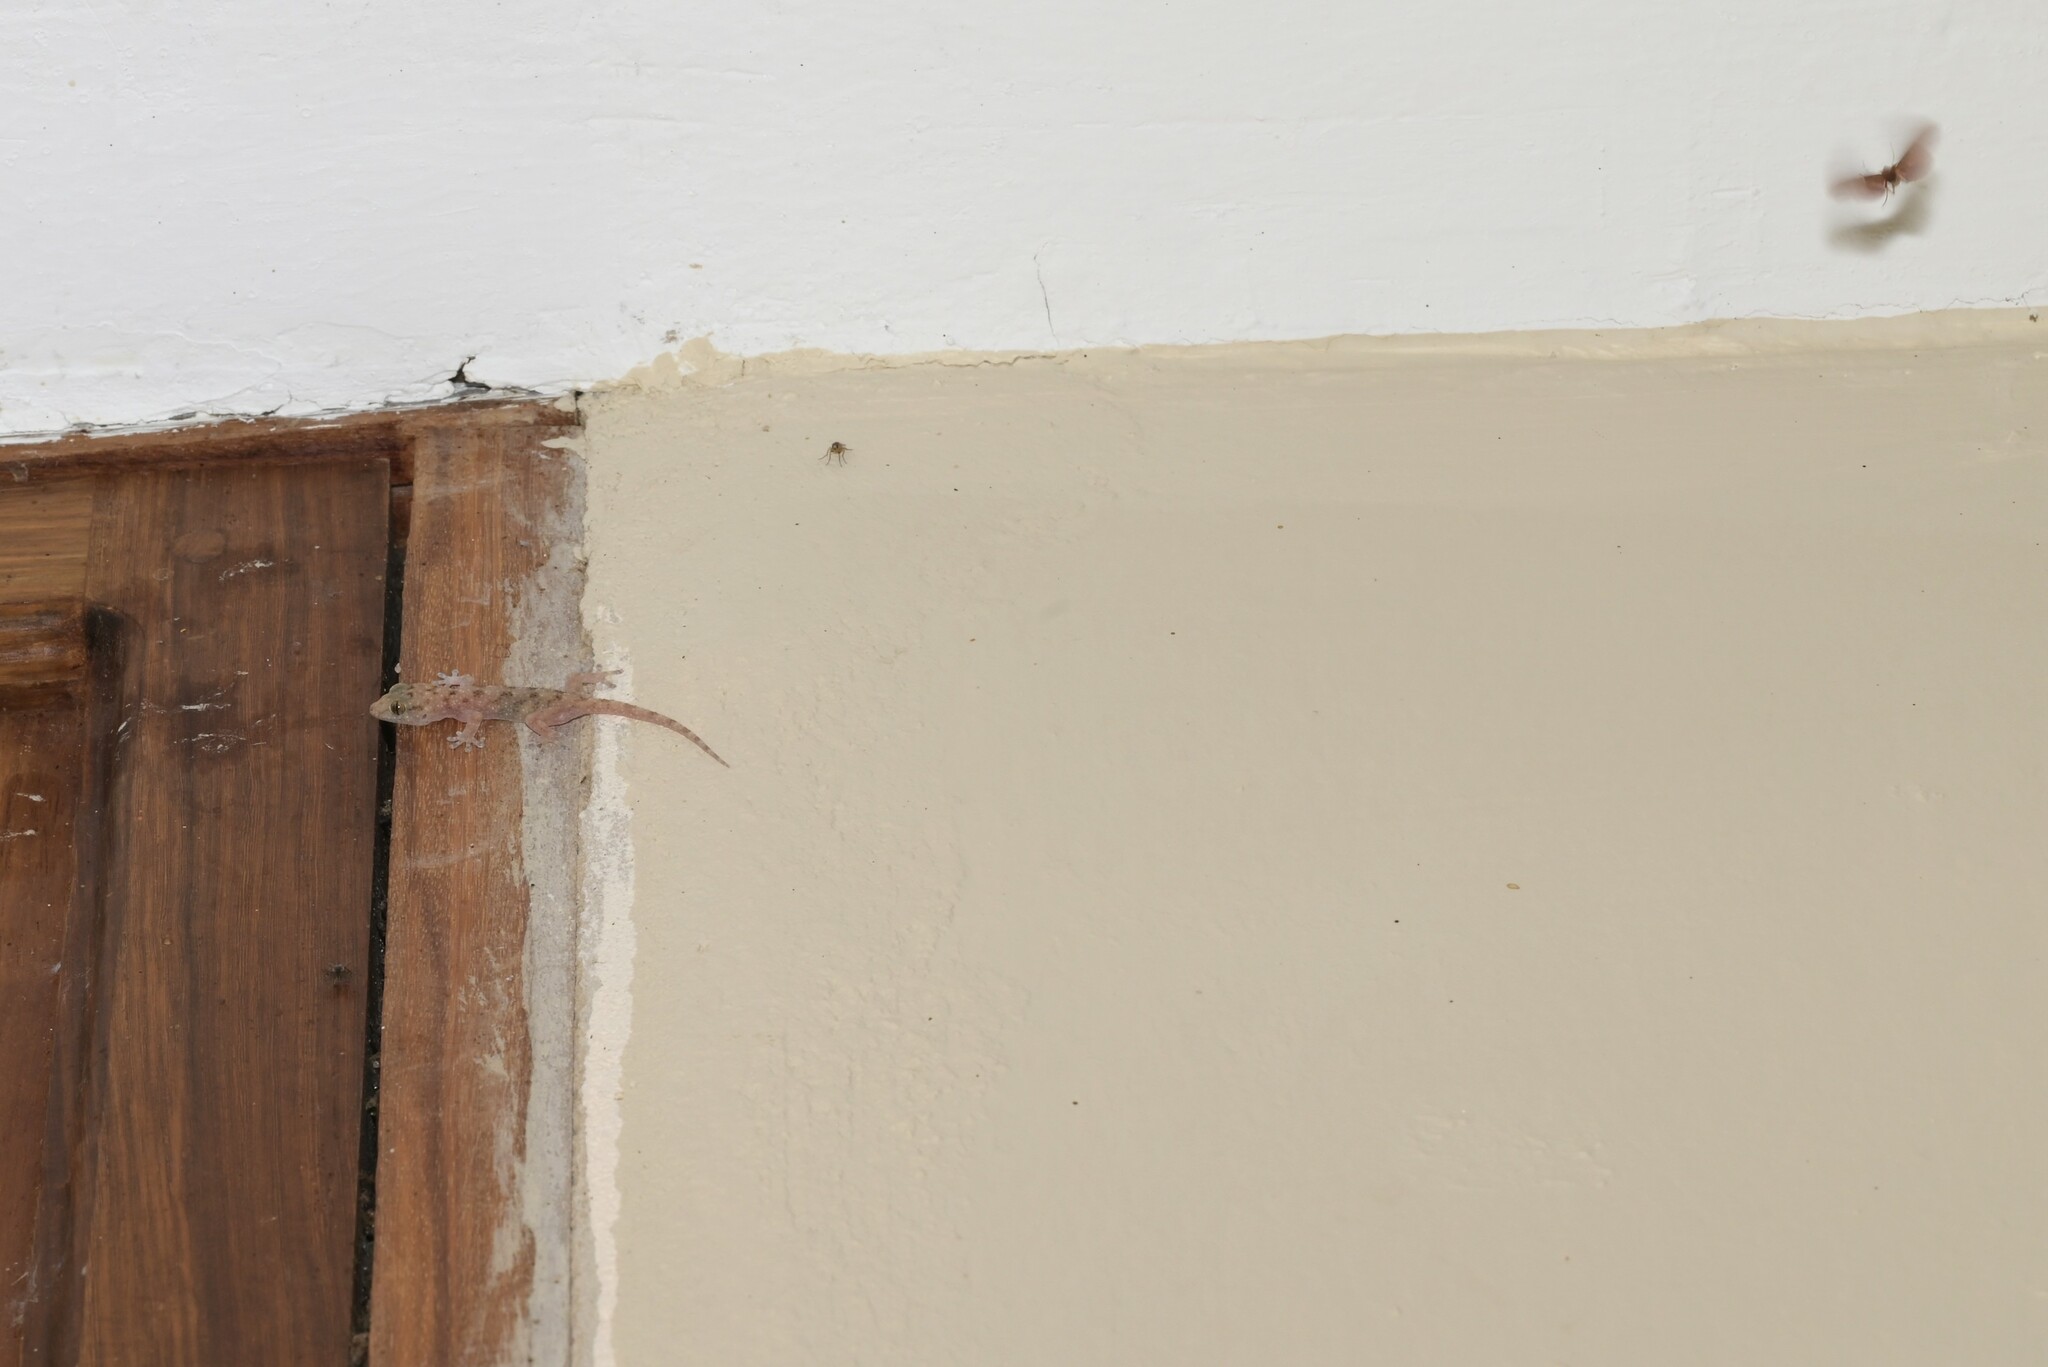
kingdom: Animalia
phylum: Chordata
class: Squamata
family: Gekkonidae
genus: Elasmodactylus
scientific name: Elasmodactylus tuberculosus
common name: Warty thick-toed gecko
